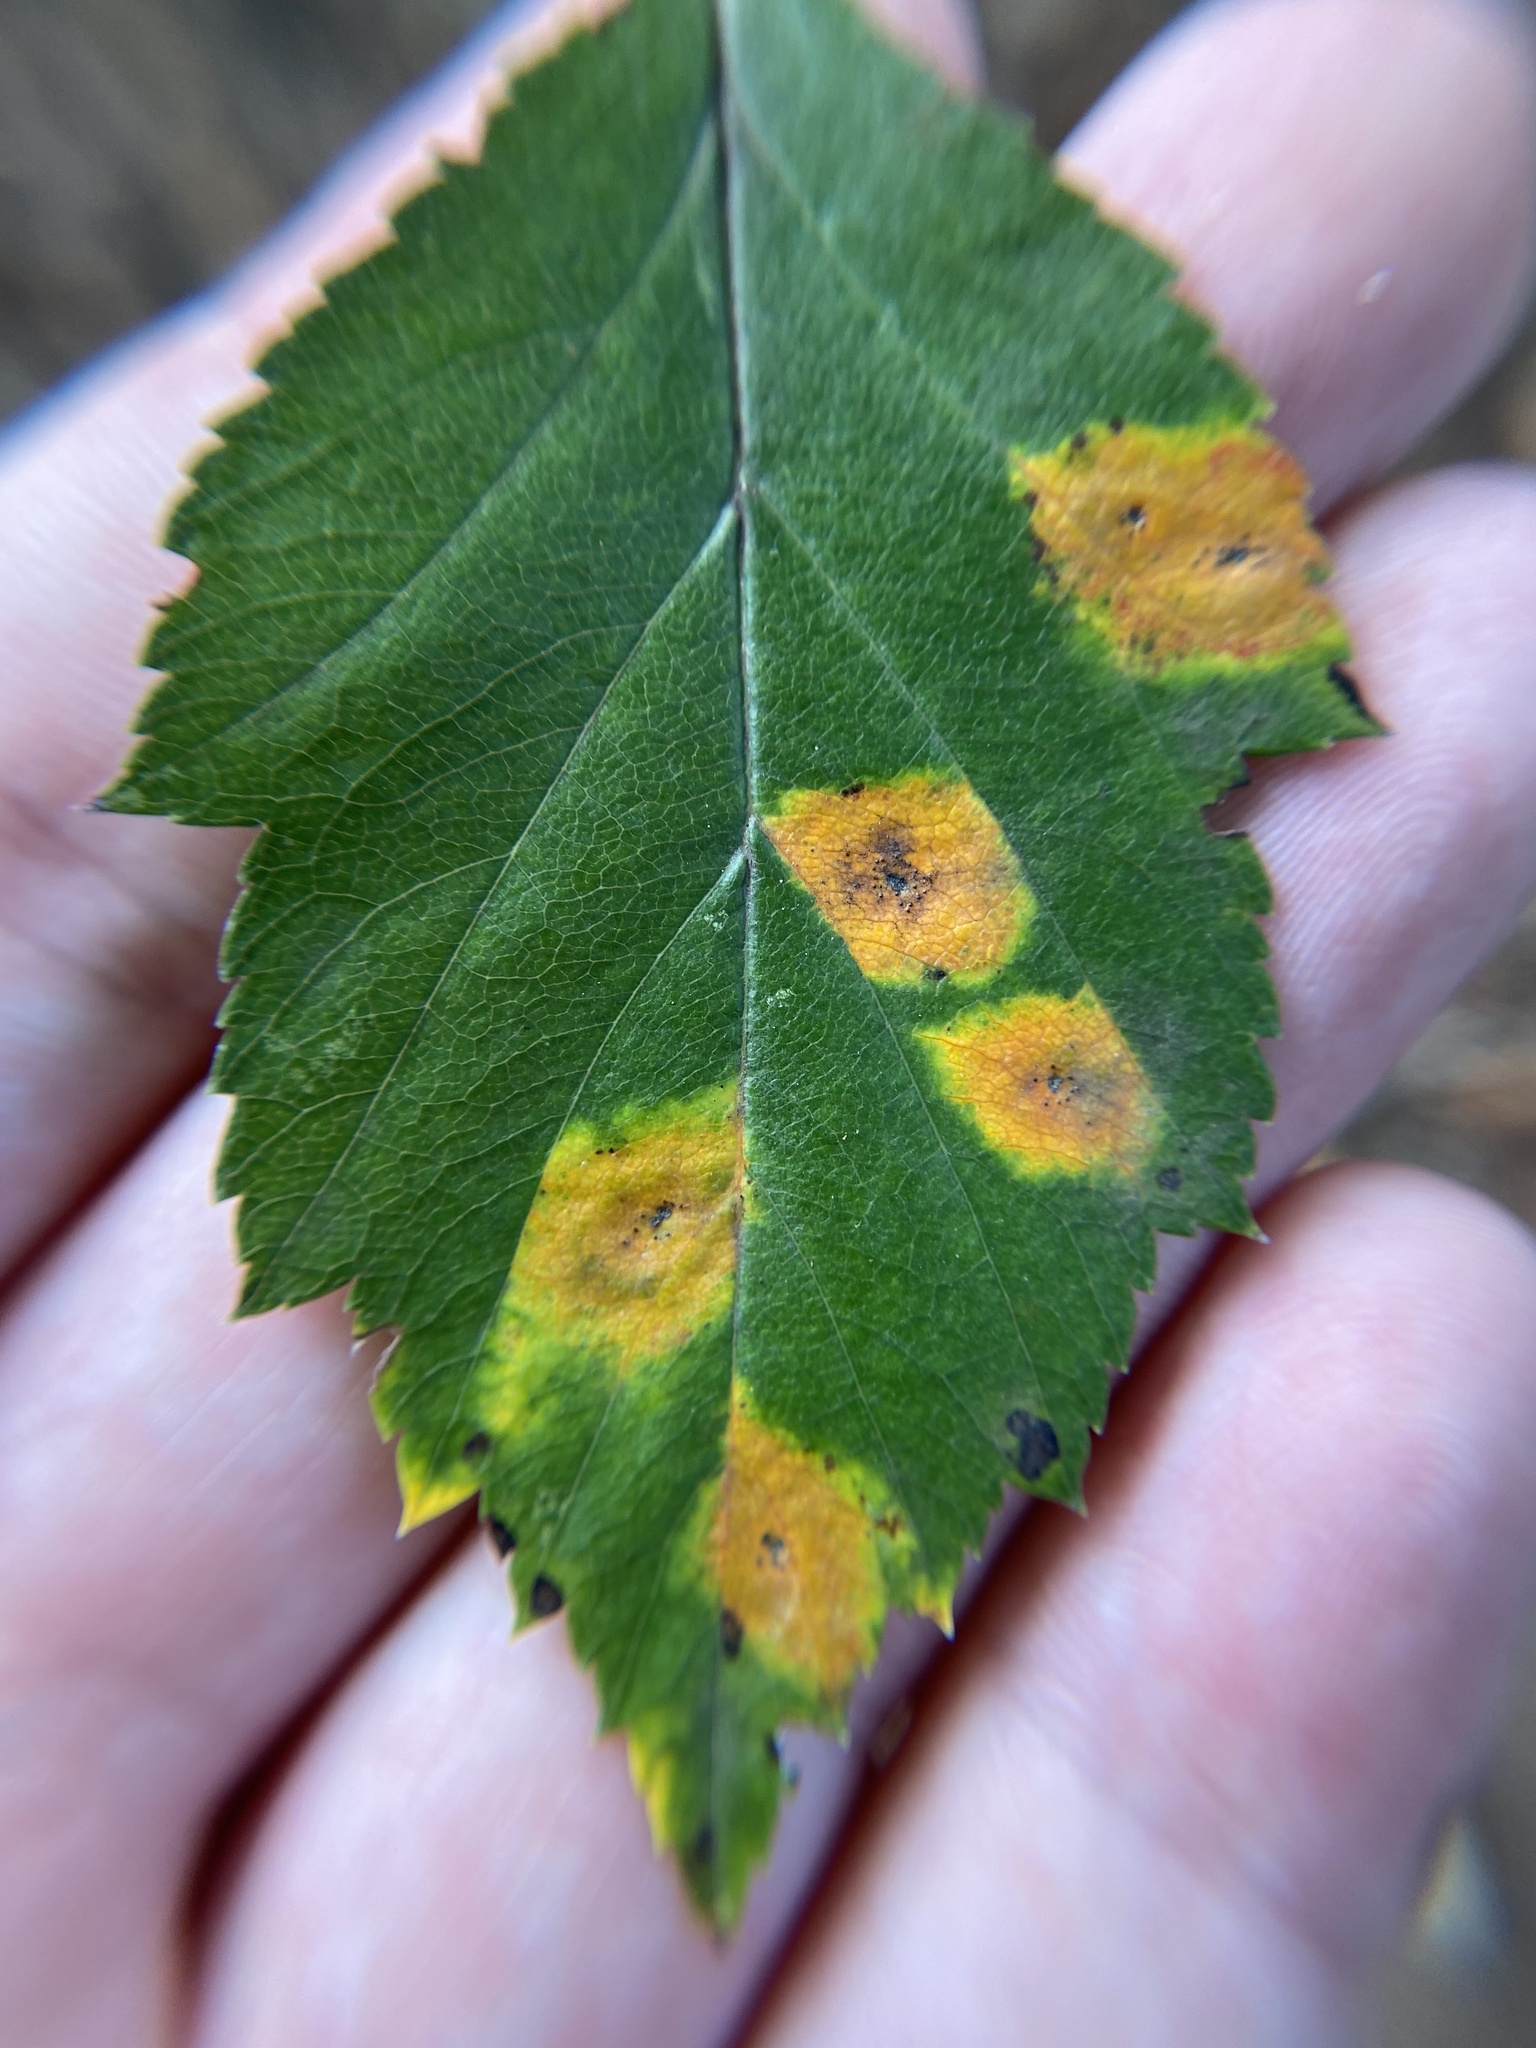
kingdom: Fungi
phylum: Basidiomycota
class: Pucciniomycetes
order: Pucciniales
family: Gymnosporangiaceae
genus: Gymnosporangium
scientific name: Gymnosporangium globosum
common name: Juniper-hawthorn rust
